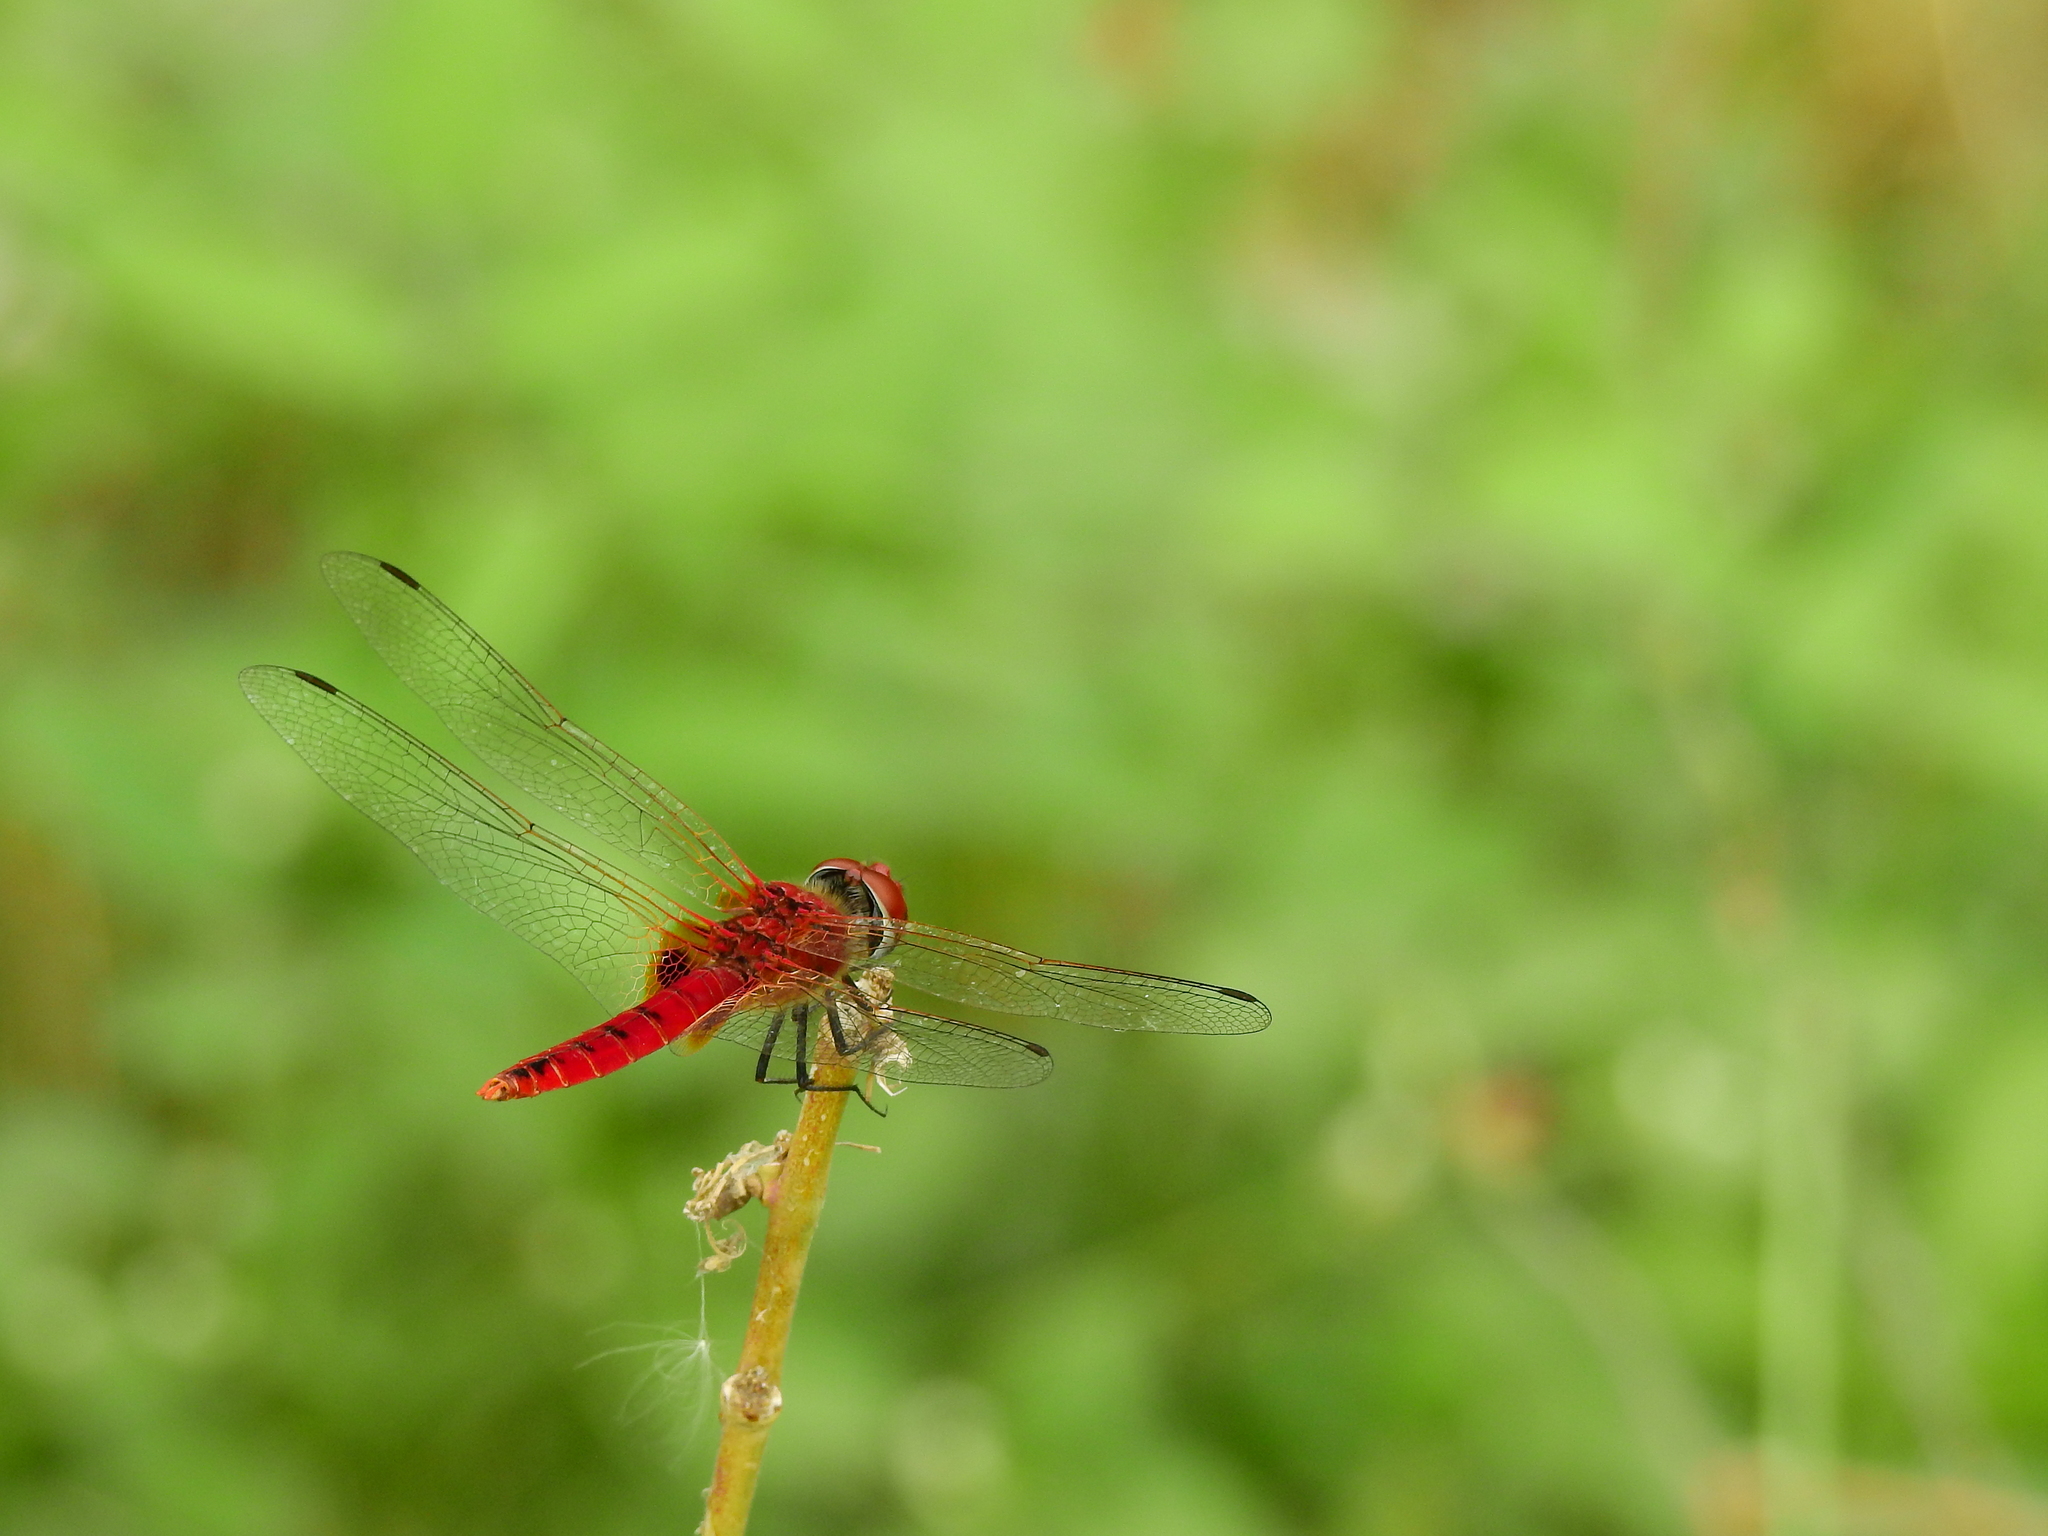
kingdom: Animalia
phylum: Arthropoda
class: Insecta
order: Odonata
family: Libellulidae
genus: Urothemis
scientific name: Urothemis signata
